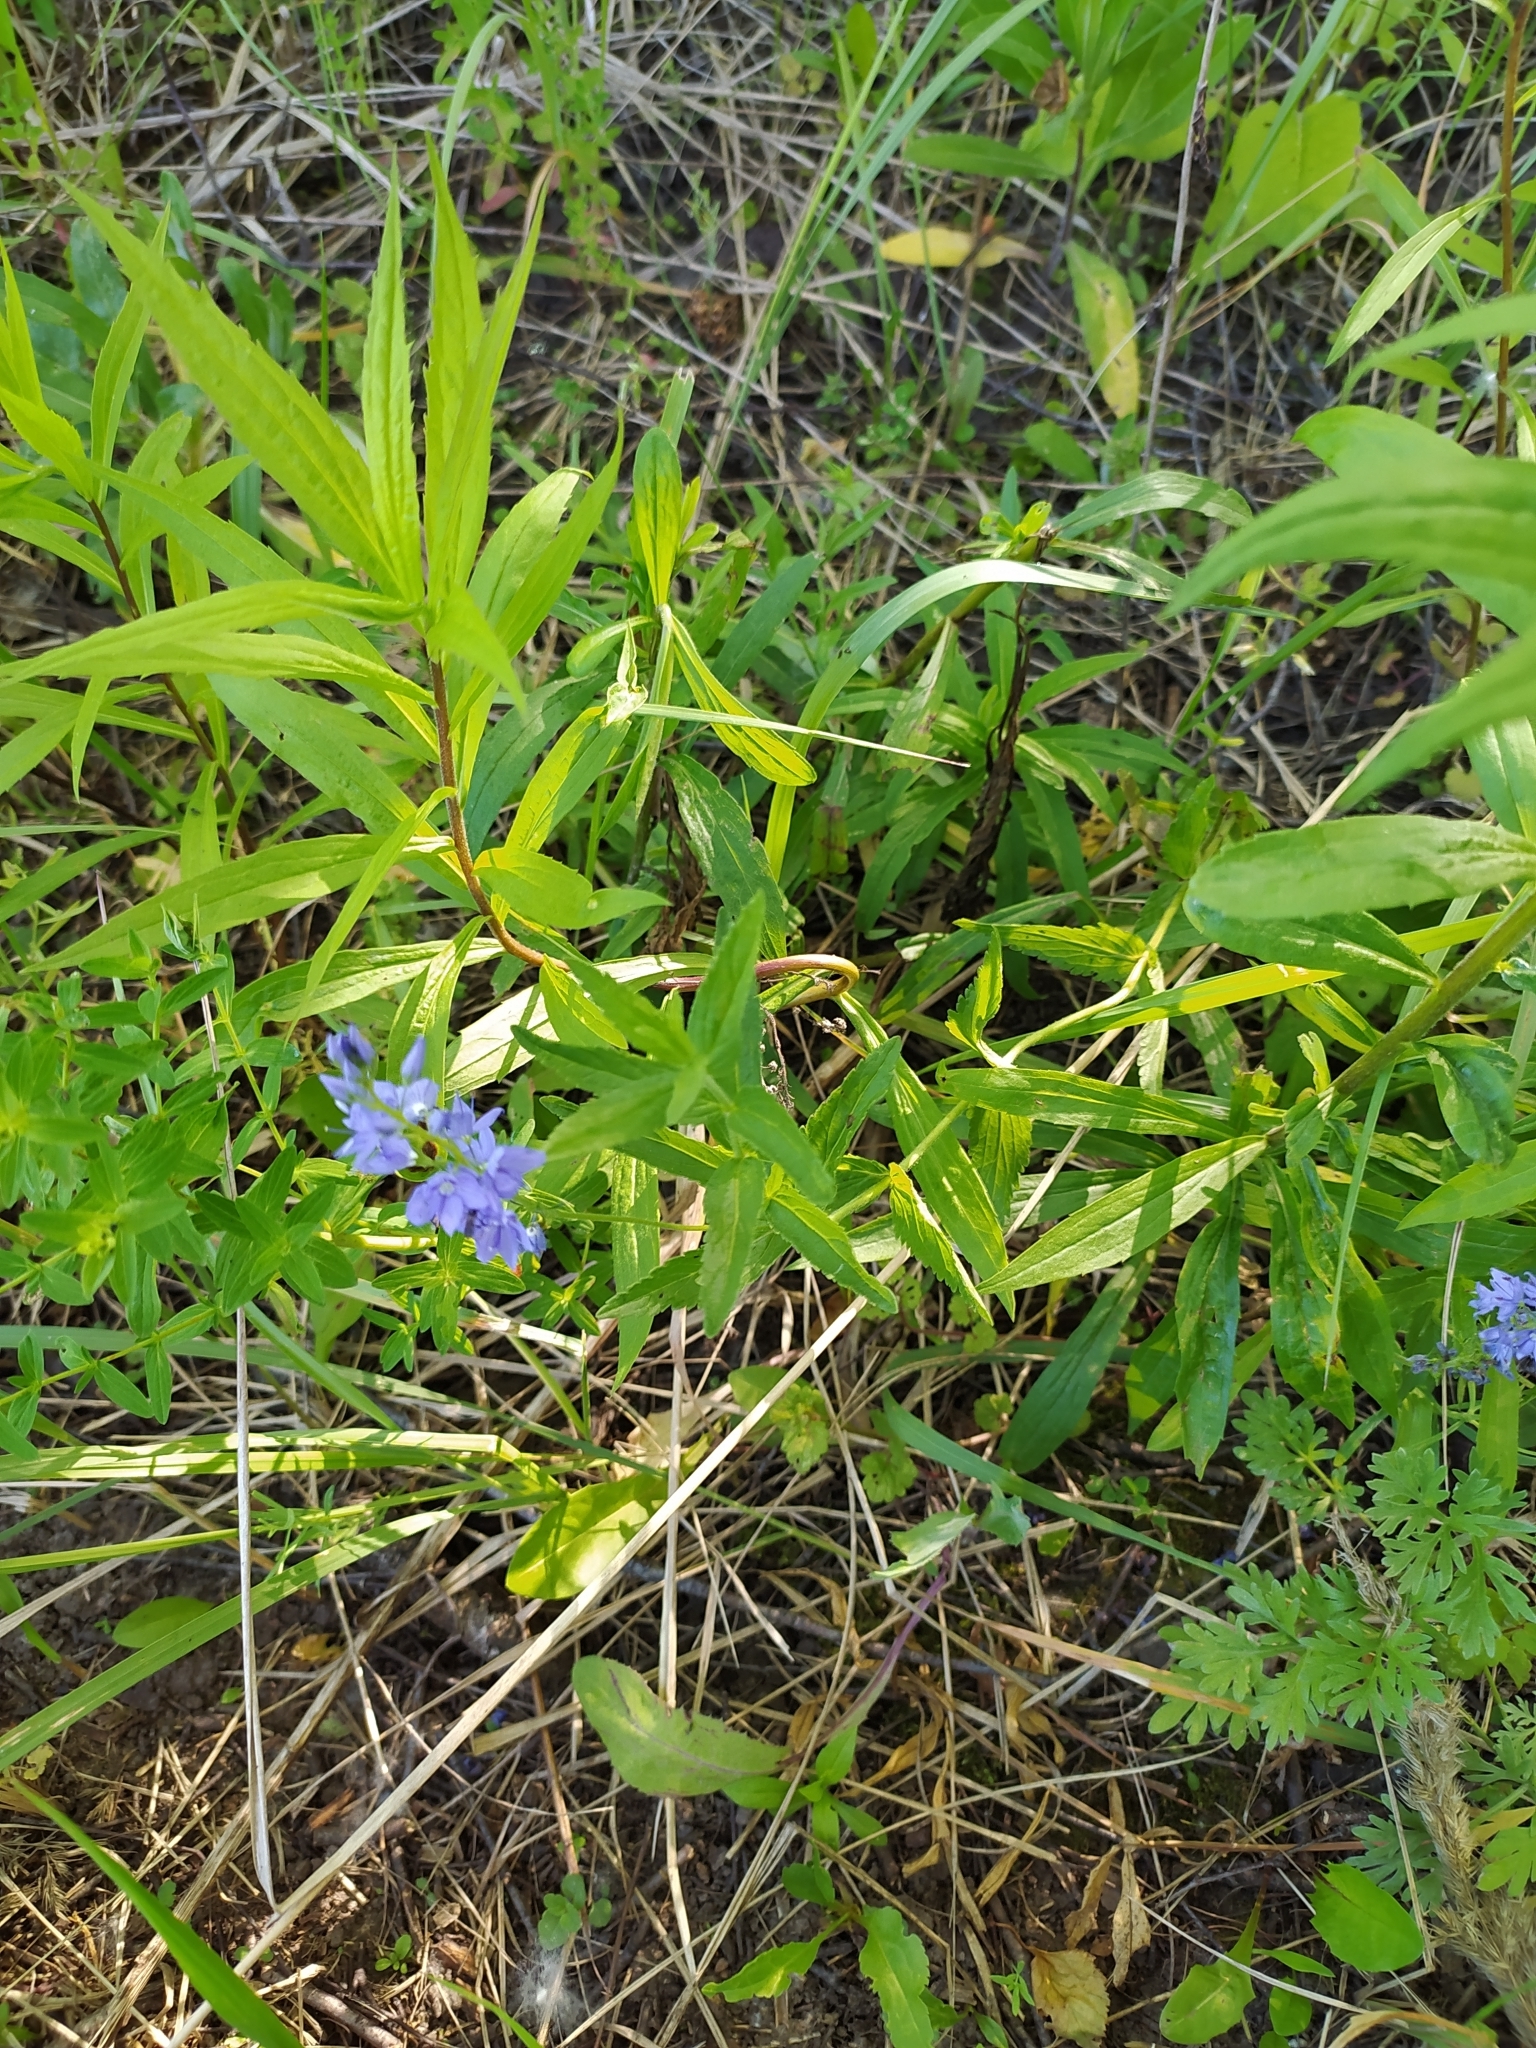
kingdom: Plantae
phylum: Tracheophyta
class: Magnoliopsida
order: Lamiales
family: Plantaginaceae
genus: Veronica
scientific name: Veronica teucrium
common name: Large speedwell
